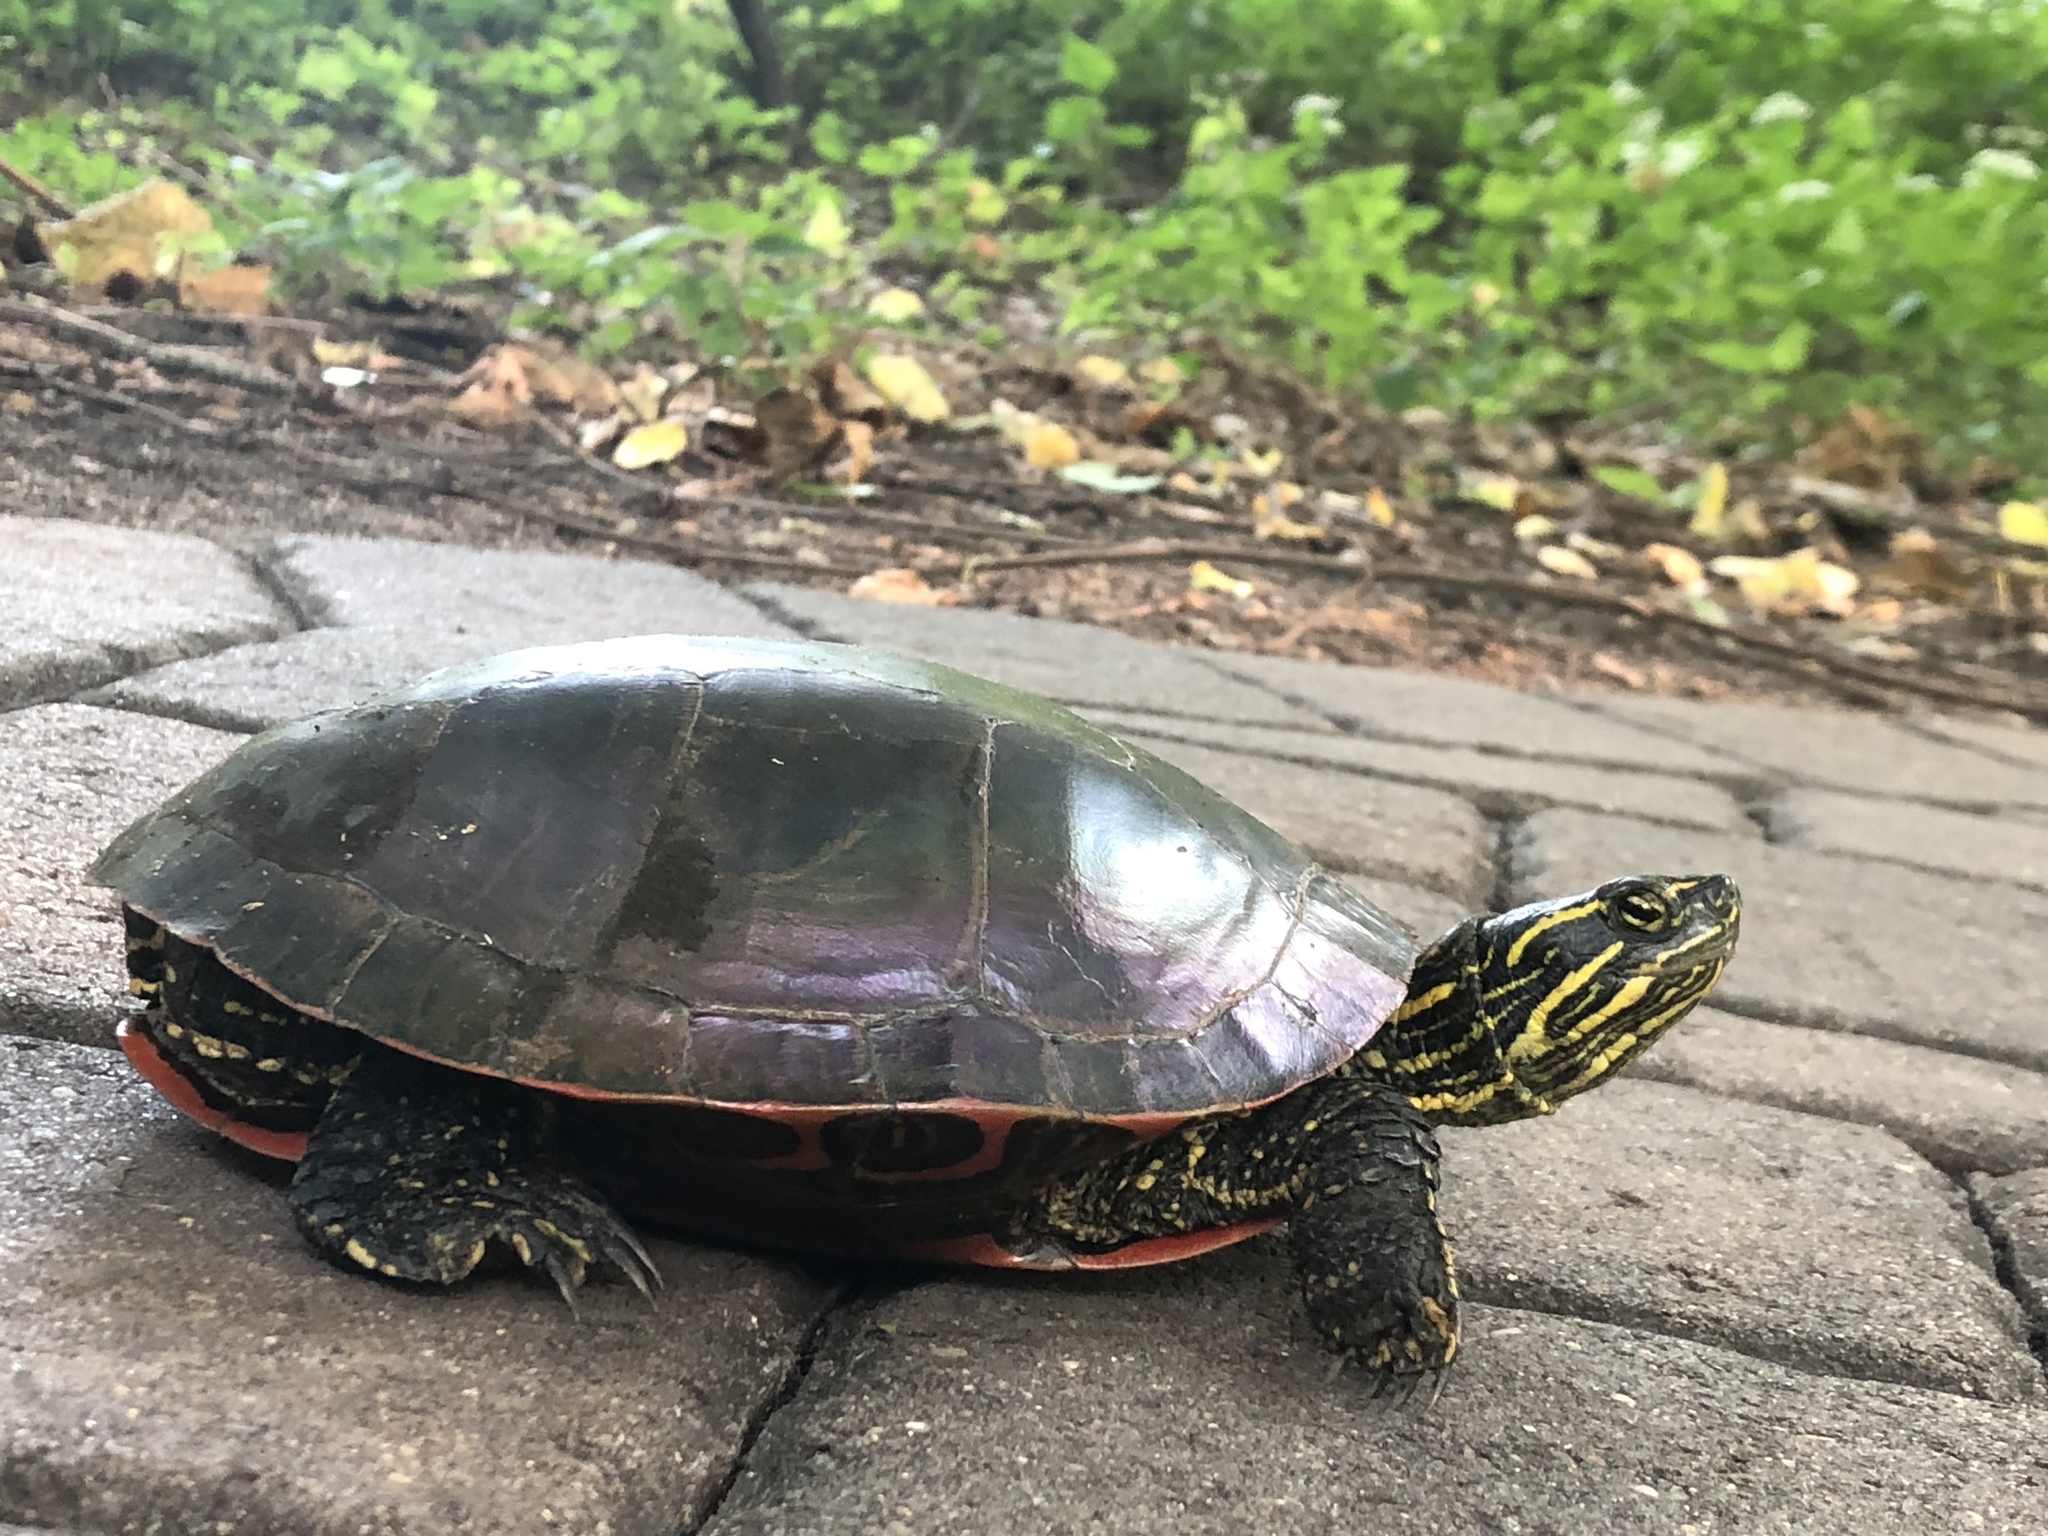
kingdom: Animalia
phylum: Chordata
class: Testudines
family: Emydidae
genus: Chrysemys
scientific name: Chrysemys picta
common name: Painted turtle
